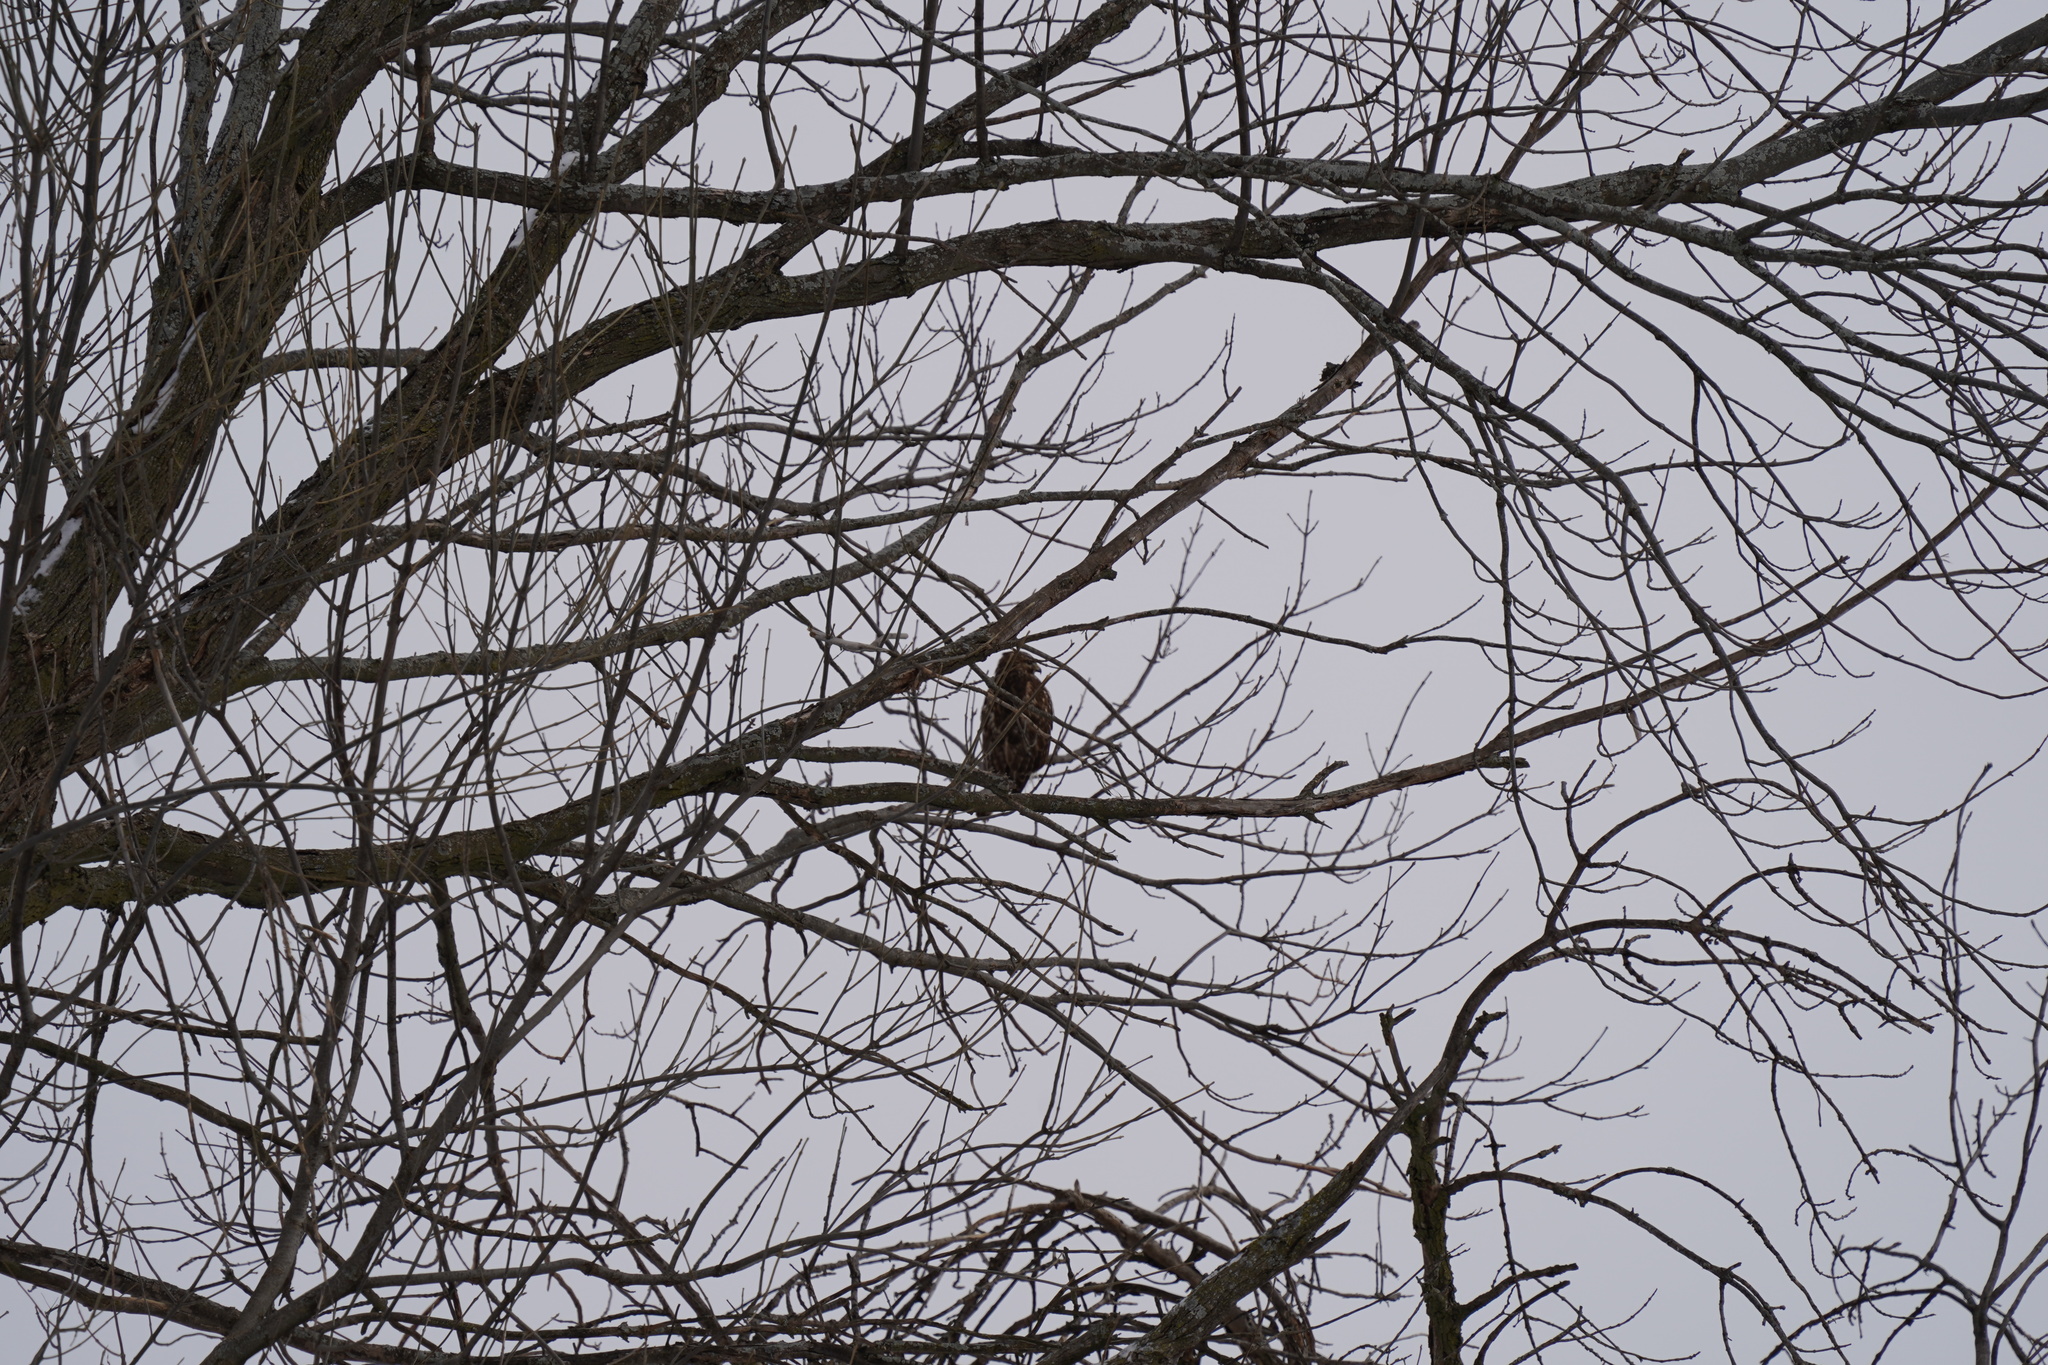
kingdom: Animalia
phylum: Chordata
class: Aves
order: Accipitriformes
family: Accipitridae
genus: Buteo
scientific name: Buteo lineatus
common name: Red-shouldered hawk
